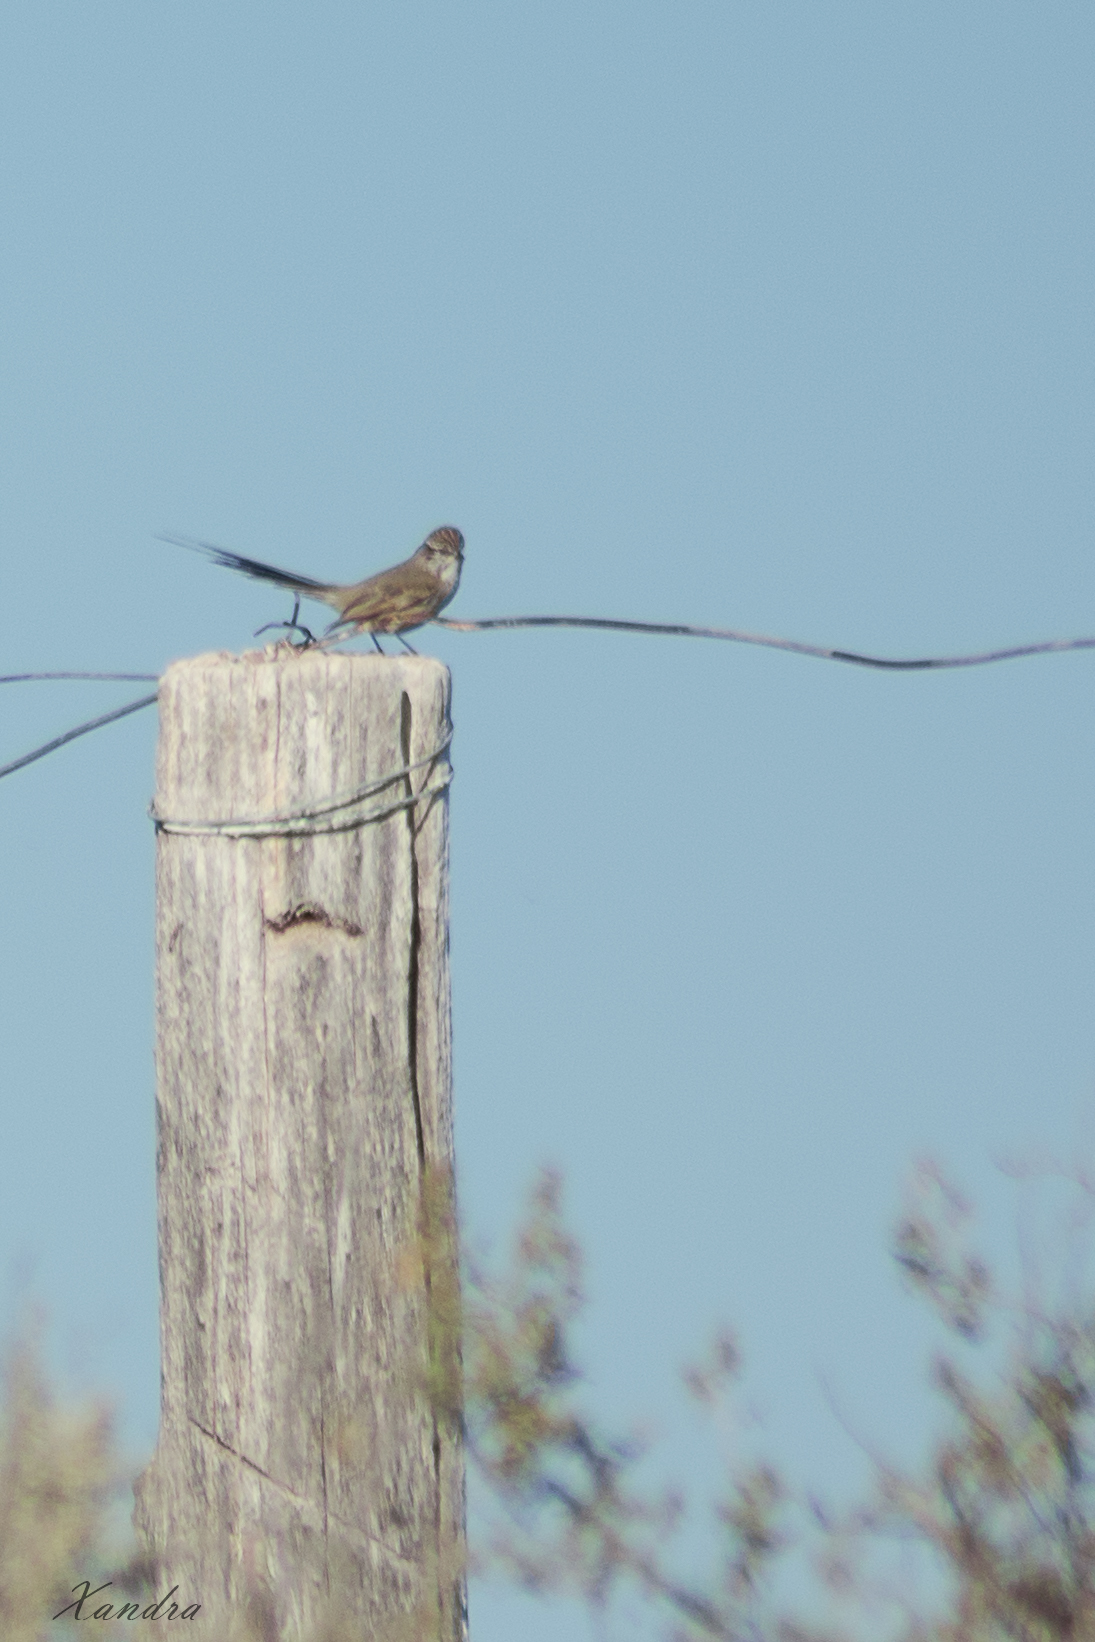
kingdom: Animalia
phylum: Chordata
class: Aves
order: Passeriformes
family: Furnariidae
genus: Leptasthenura
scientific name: Leptasthenura aegithaloides
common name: Plain-mantled tit-spinetail
